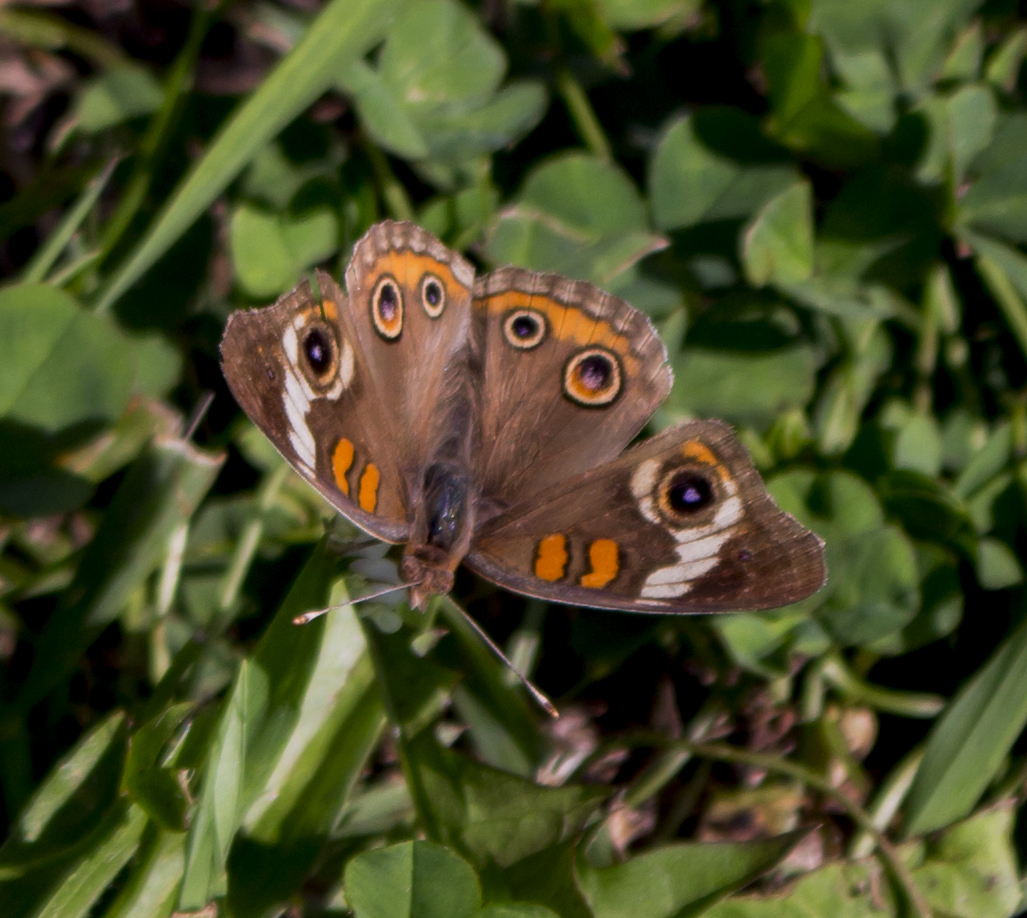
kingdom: Animalia
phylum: Arthropoda
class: Insecta
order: Lepidoptera
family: Nymphalidae
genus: Junonia
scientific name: Junonia coenia
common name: Common buckeye
